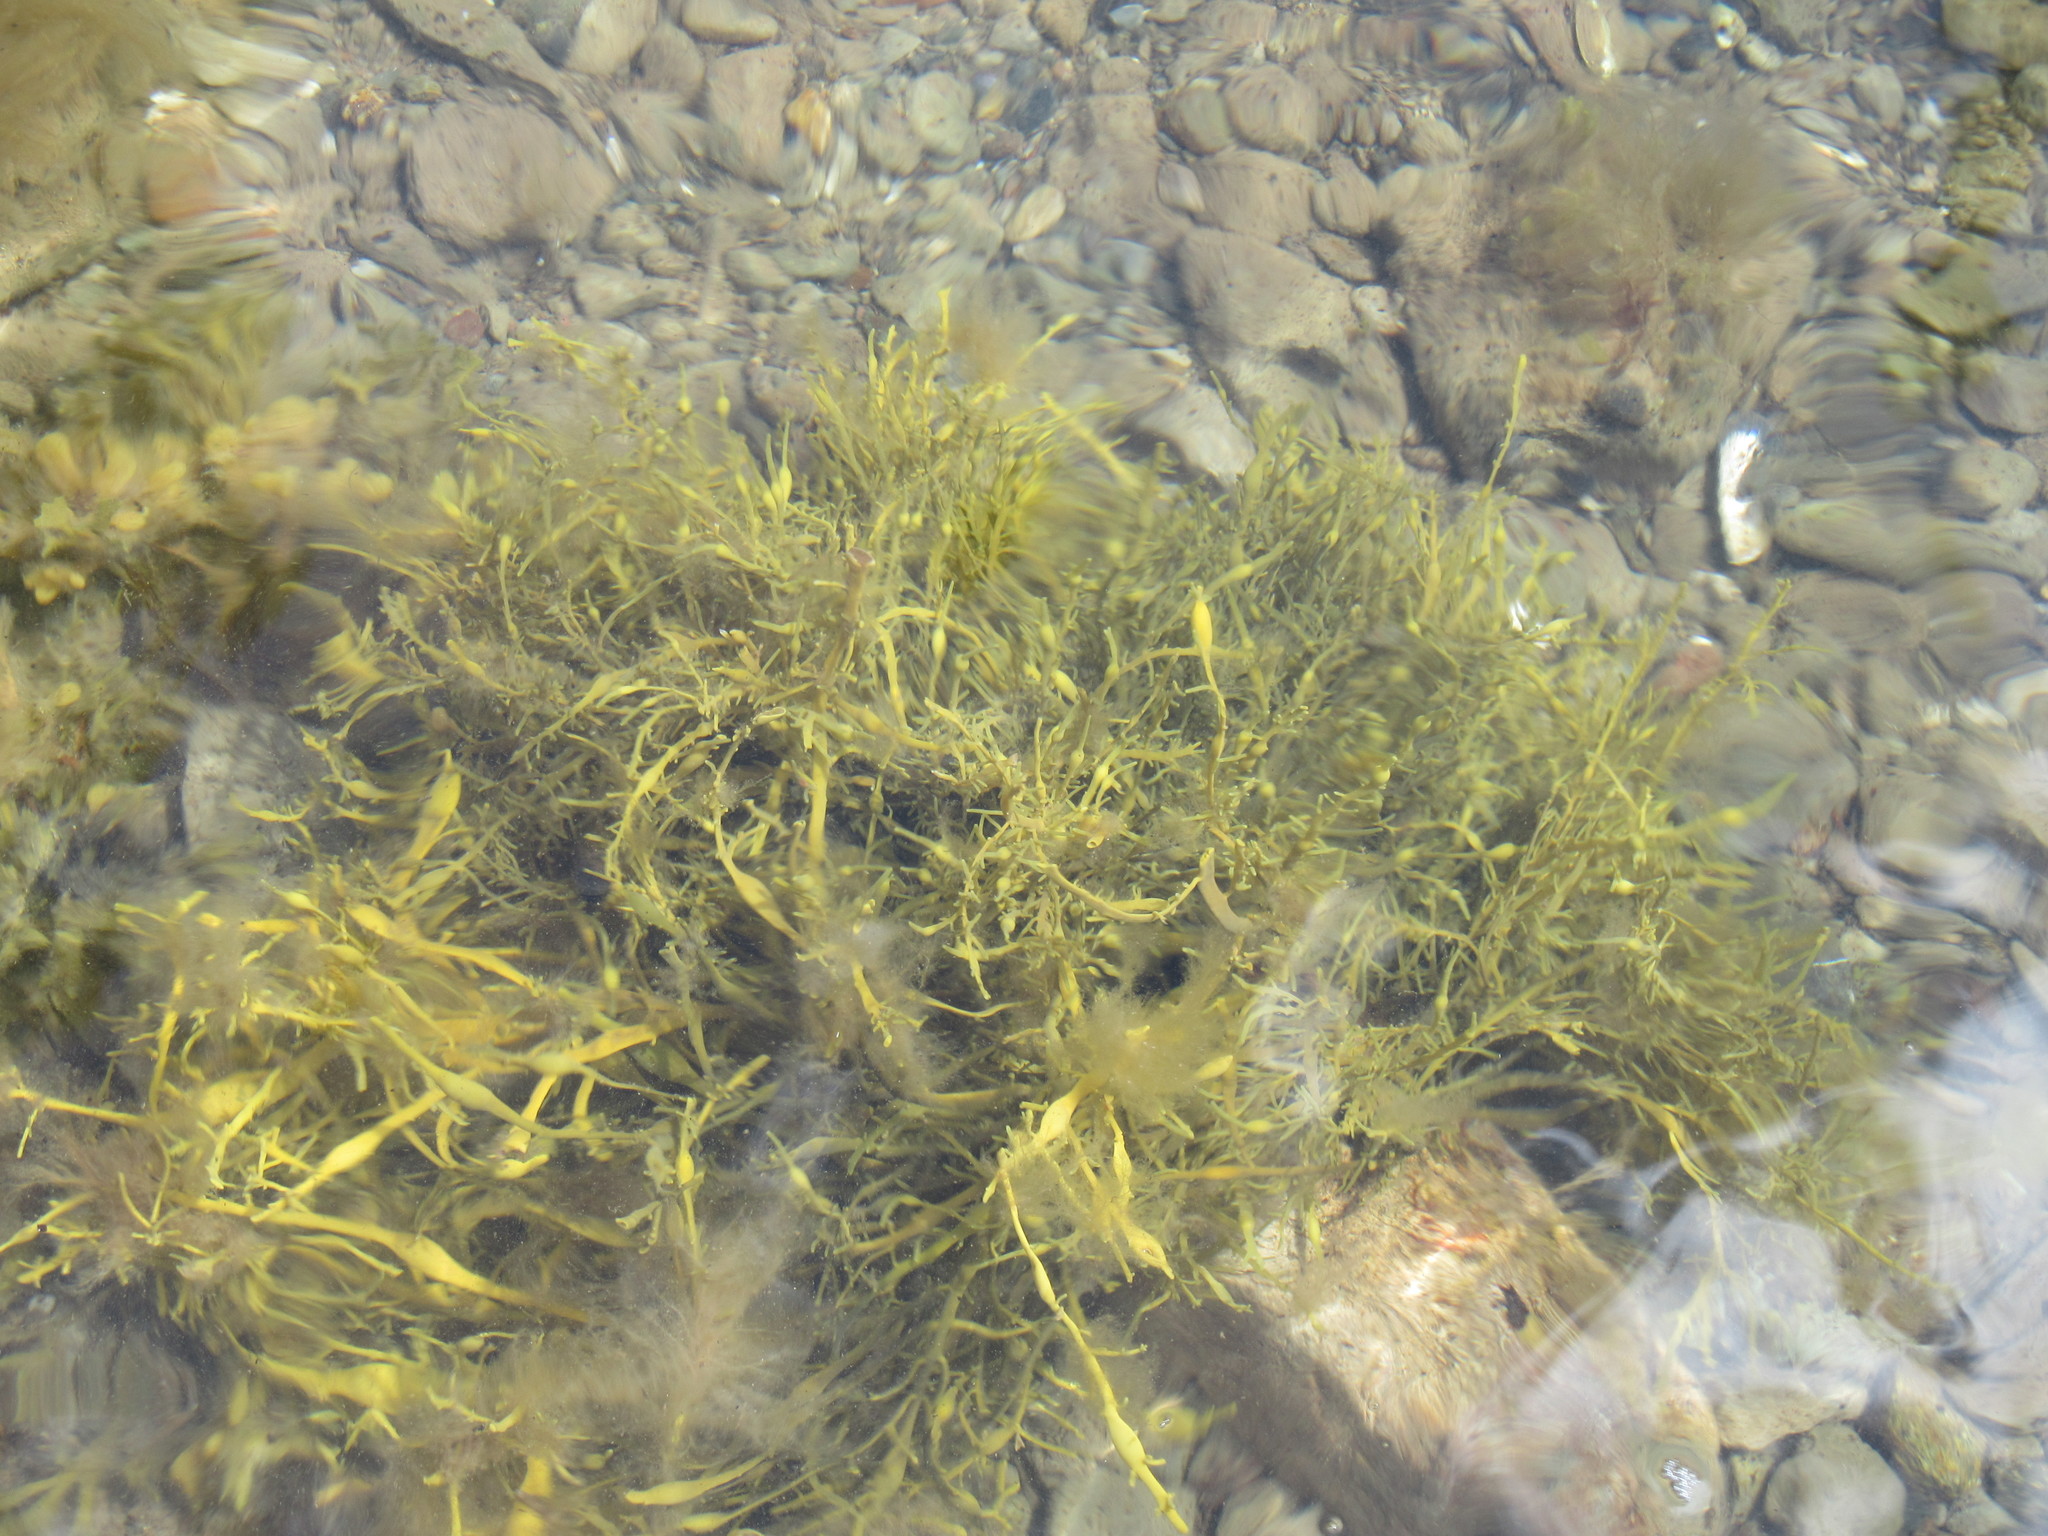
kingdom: Chromista
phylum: Ochrophyta
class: Phaeophyceae
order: Fucales
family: Fucaceae
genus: Ascophyllum
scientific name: Ascophyllum nodosum
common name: Knotted wrack
